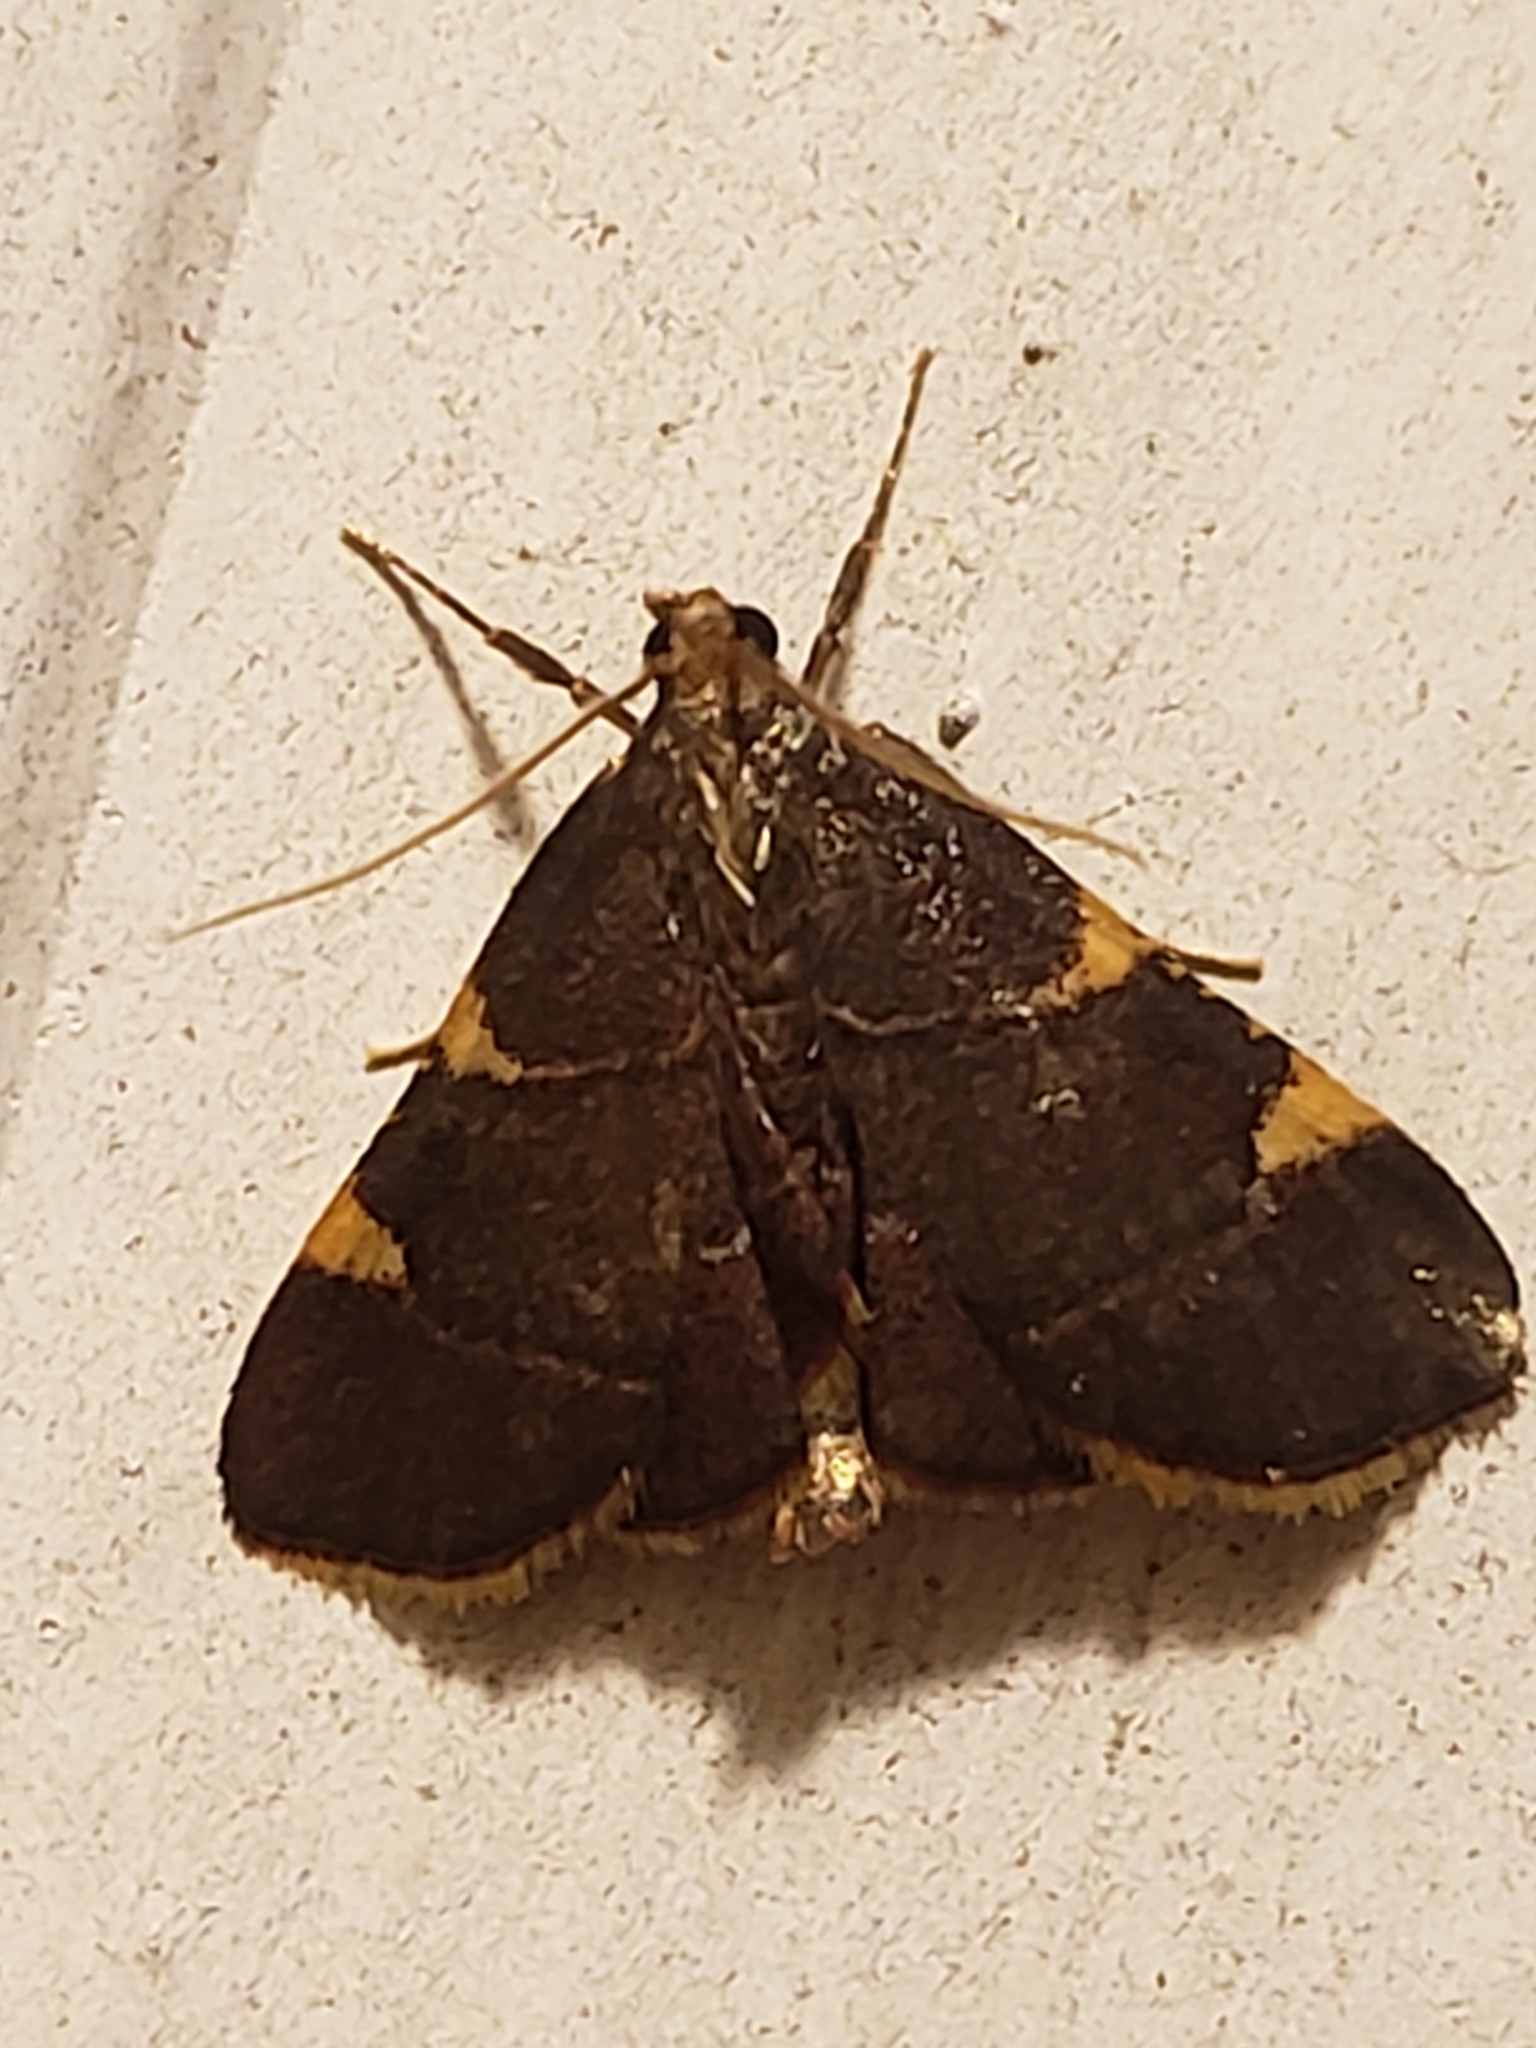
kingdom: Animalia
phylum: Arthropoda
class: Insecta
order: Lepidoptera
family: Pyralidae
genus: Hypsopygia
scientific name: Hypsopygia olinalis
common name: Yellow-fringed dolichomia moth
